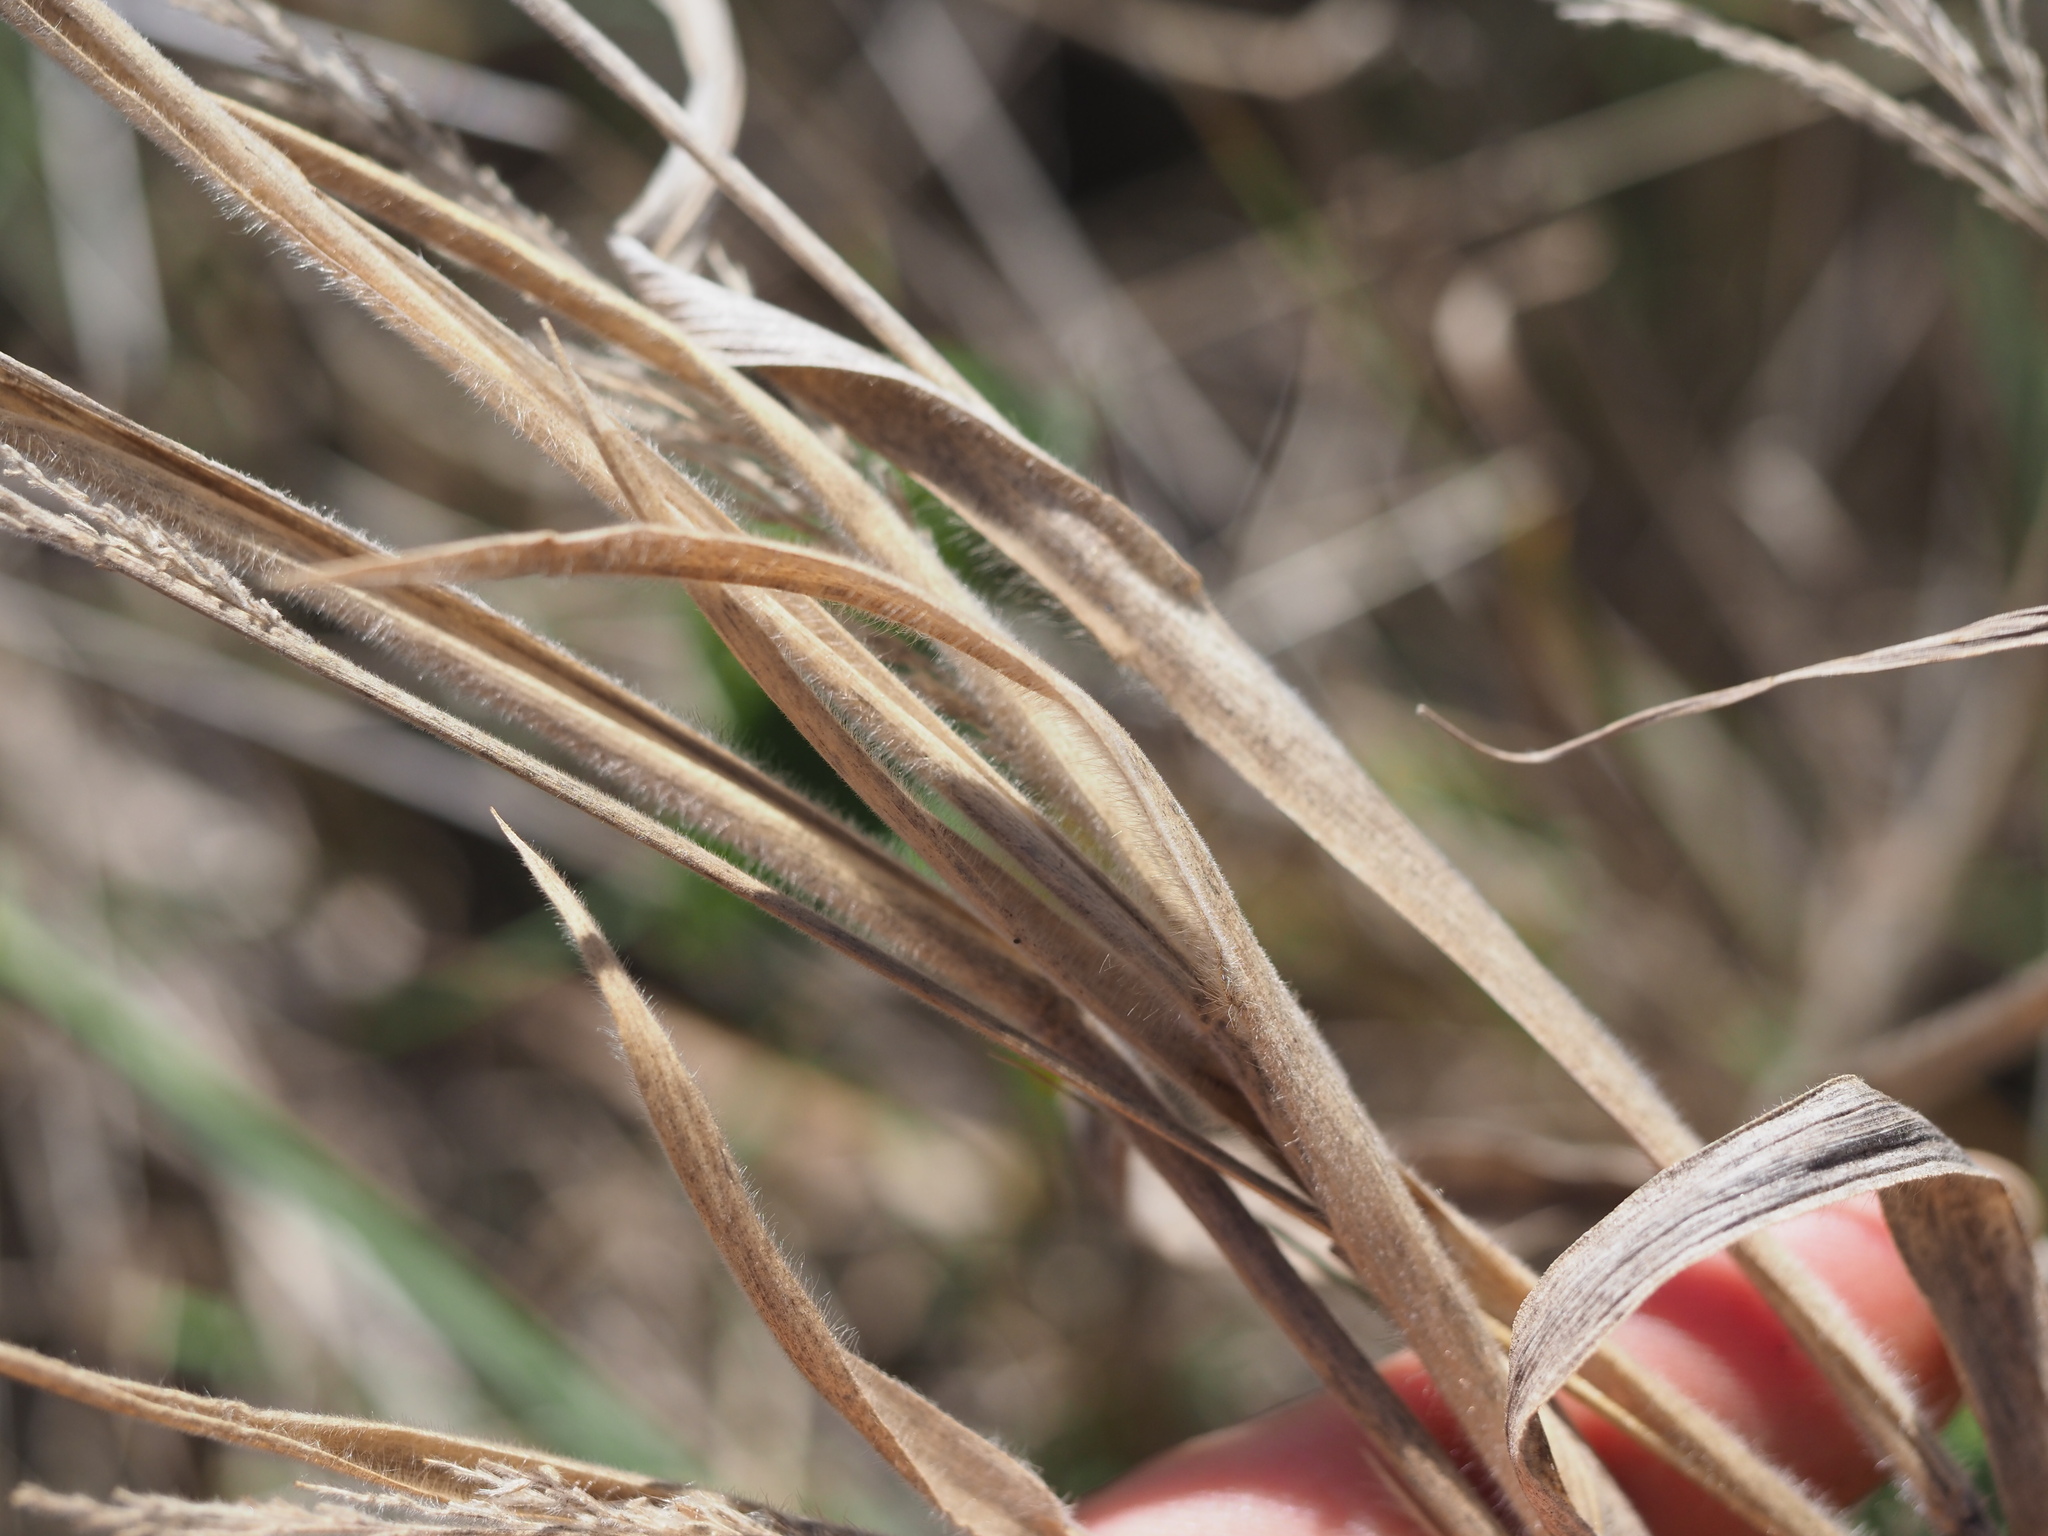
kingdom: Plantae
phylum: Tracheophyta
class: Liliopsida
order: Poales
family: Poaceae
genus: Panicum
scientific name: Panicum torridum
